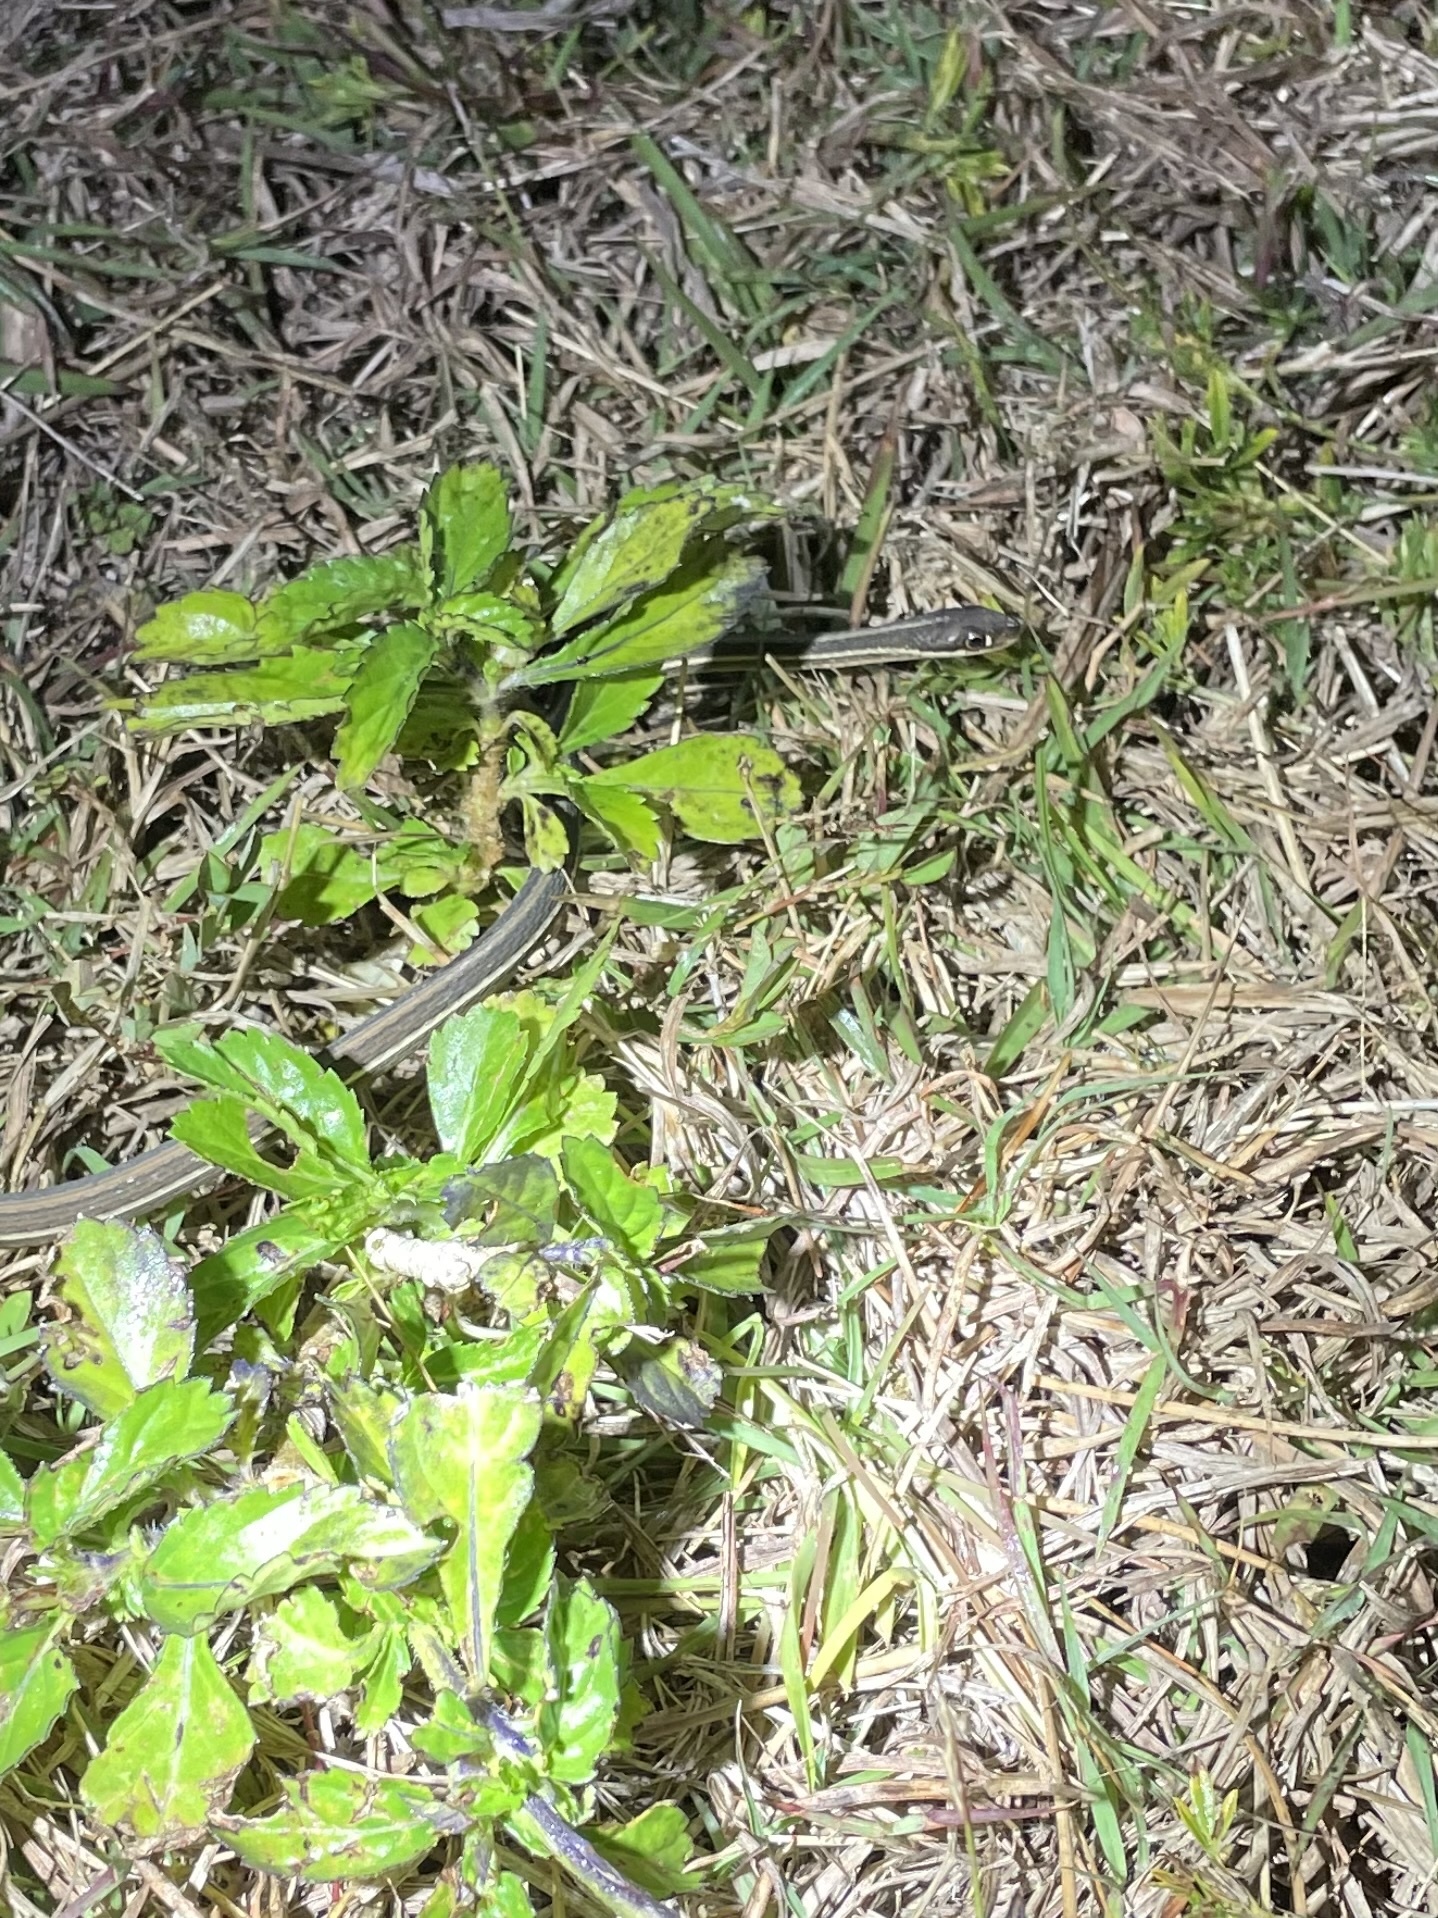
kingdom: Animalia
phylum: Chordata
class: Squamata
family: Colubridae
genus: Thamnophis
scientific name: Thamnophis saurita
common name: Eastern ribbonsnake
